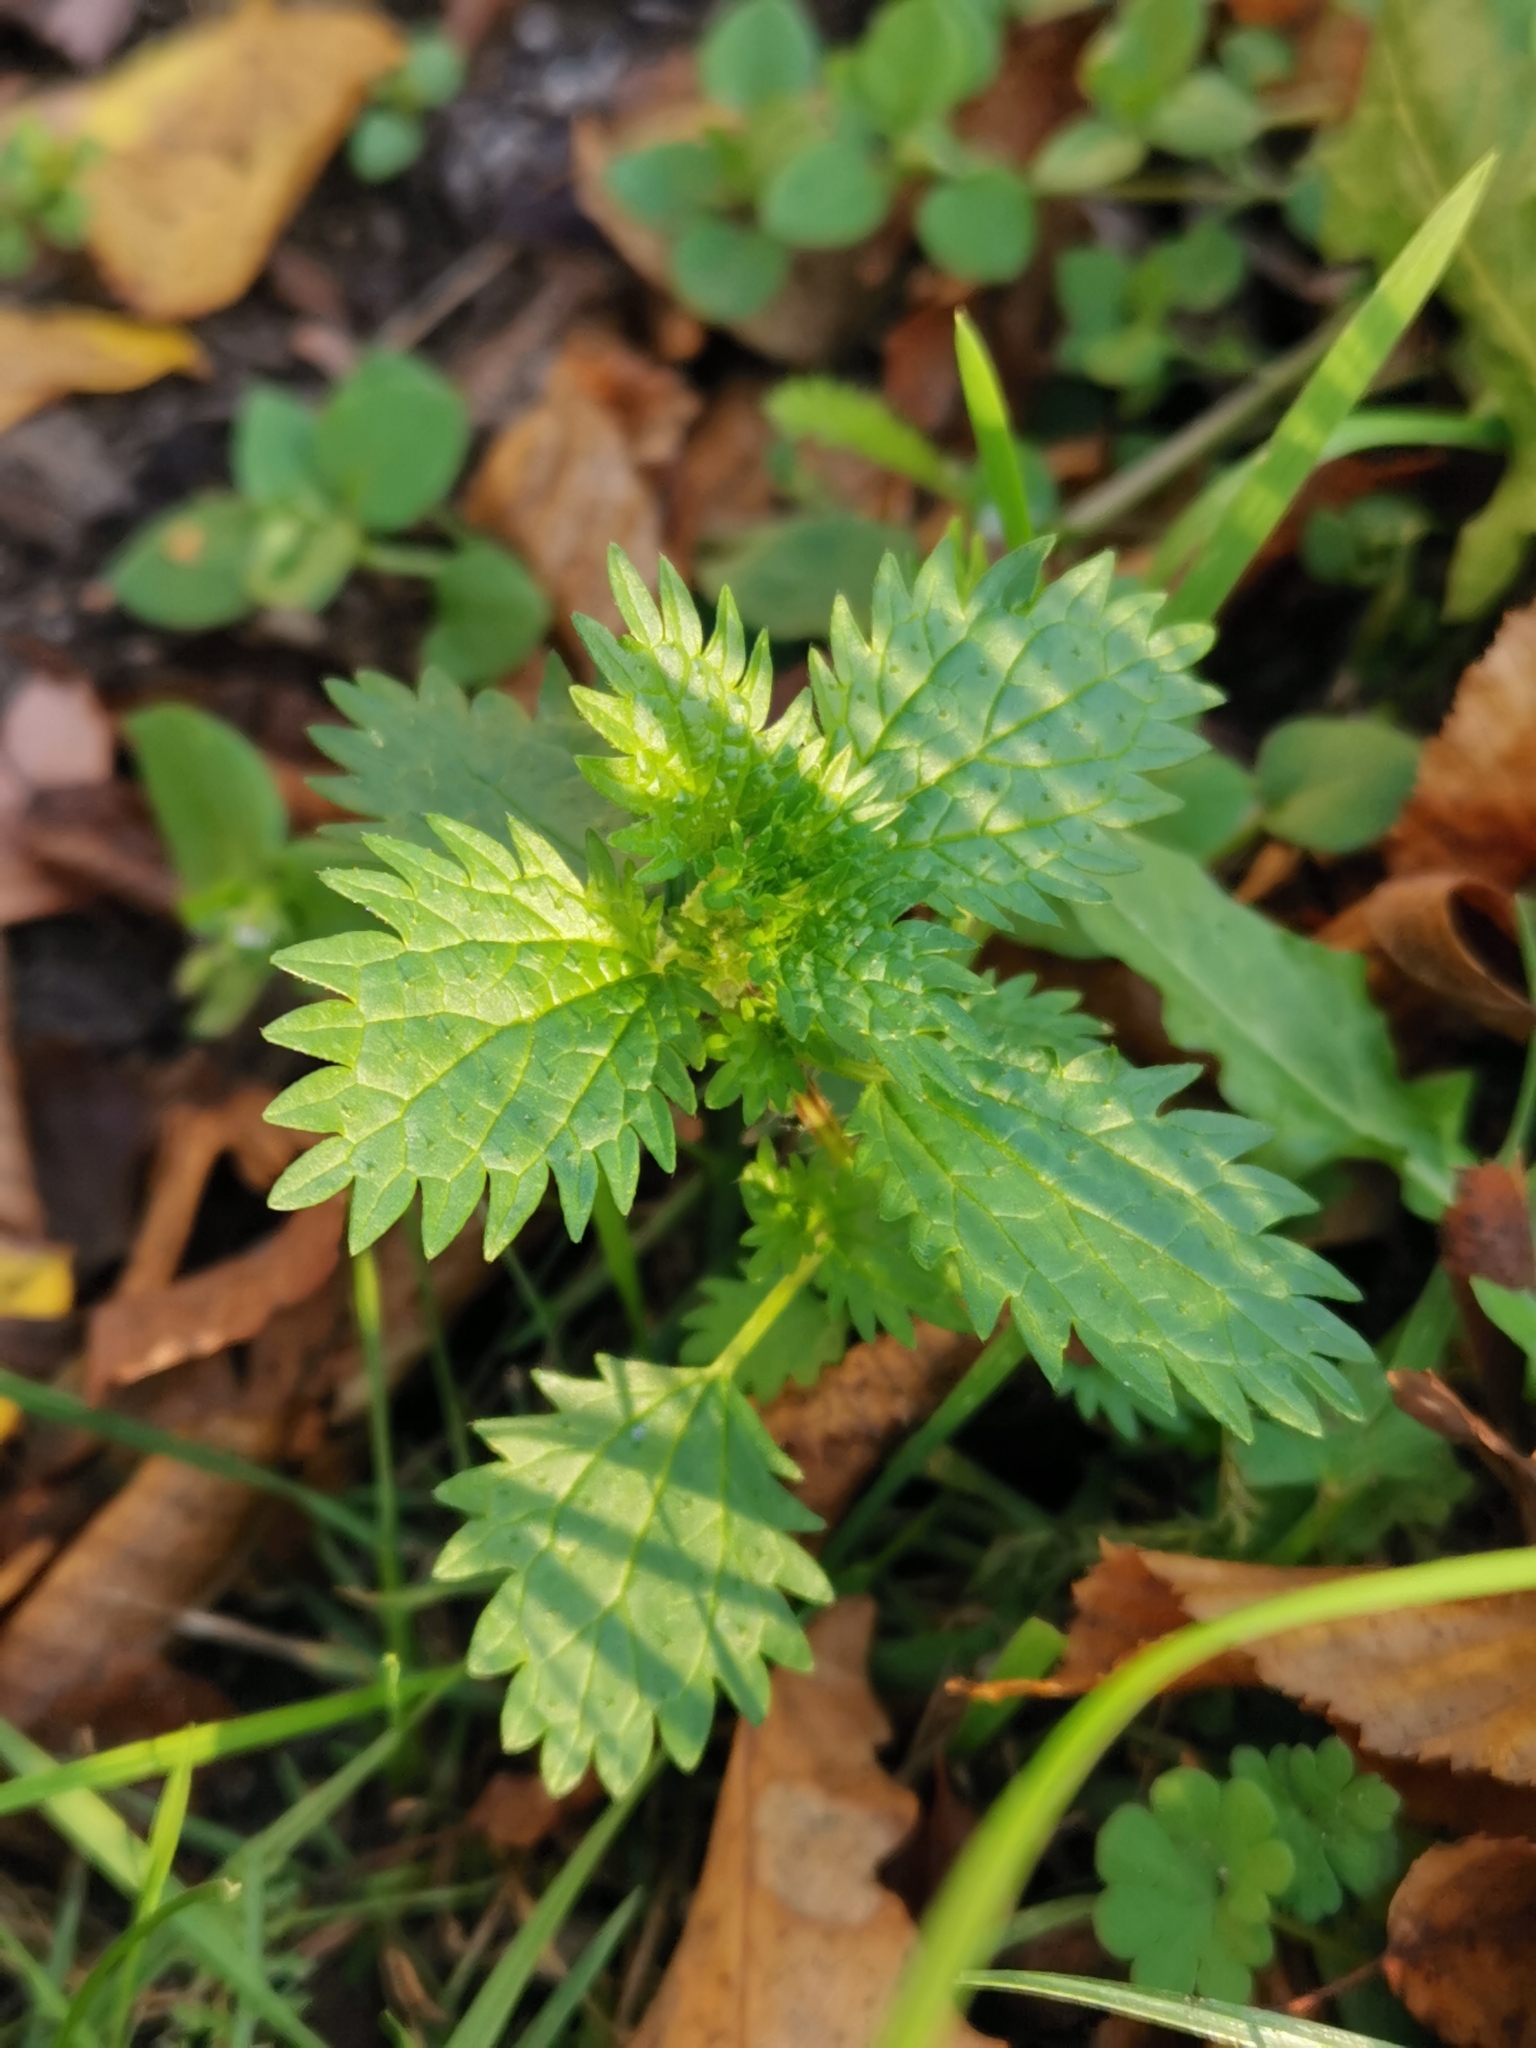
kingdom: Plantae
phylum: Tracheophyta
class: Magnoliopsida
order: Rosales
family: Urticaceae
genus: Urtica
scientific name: Urtica urens
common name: Dwarf nettle
